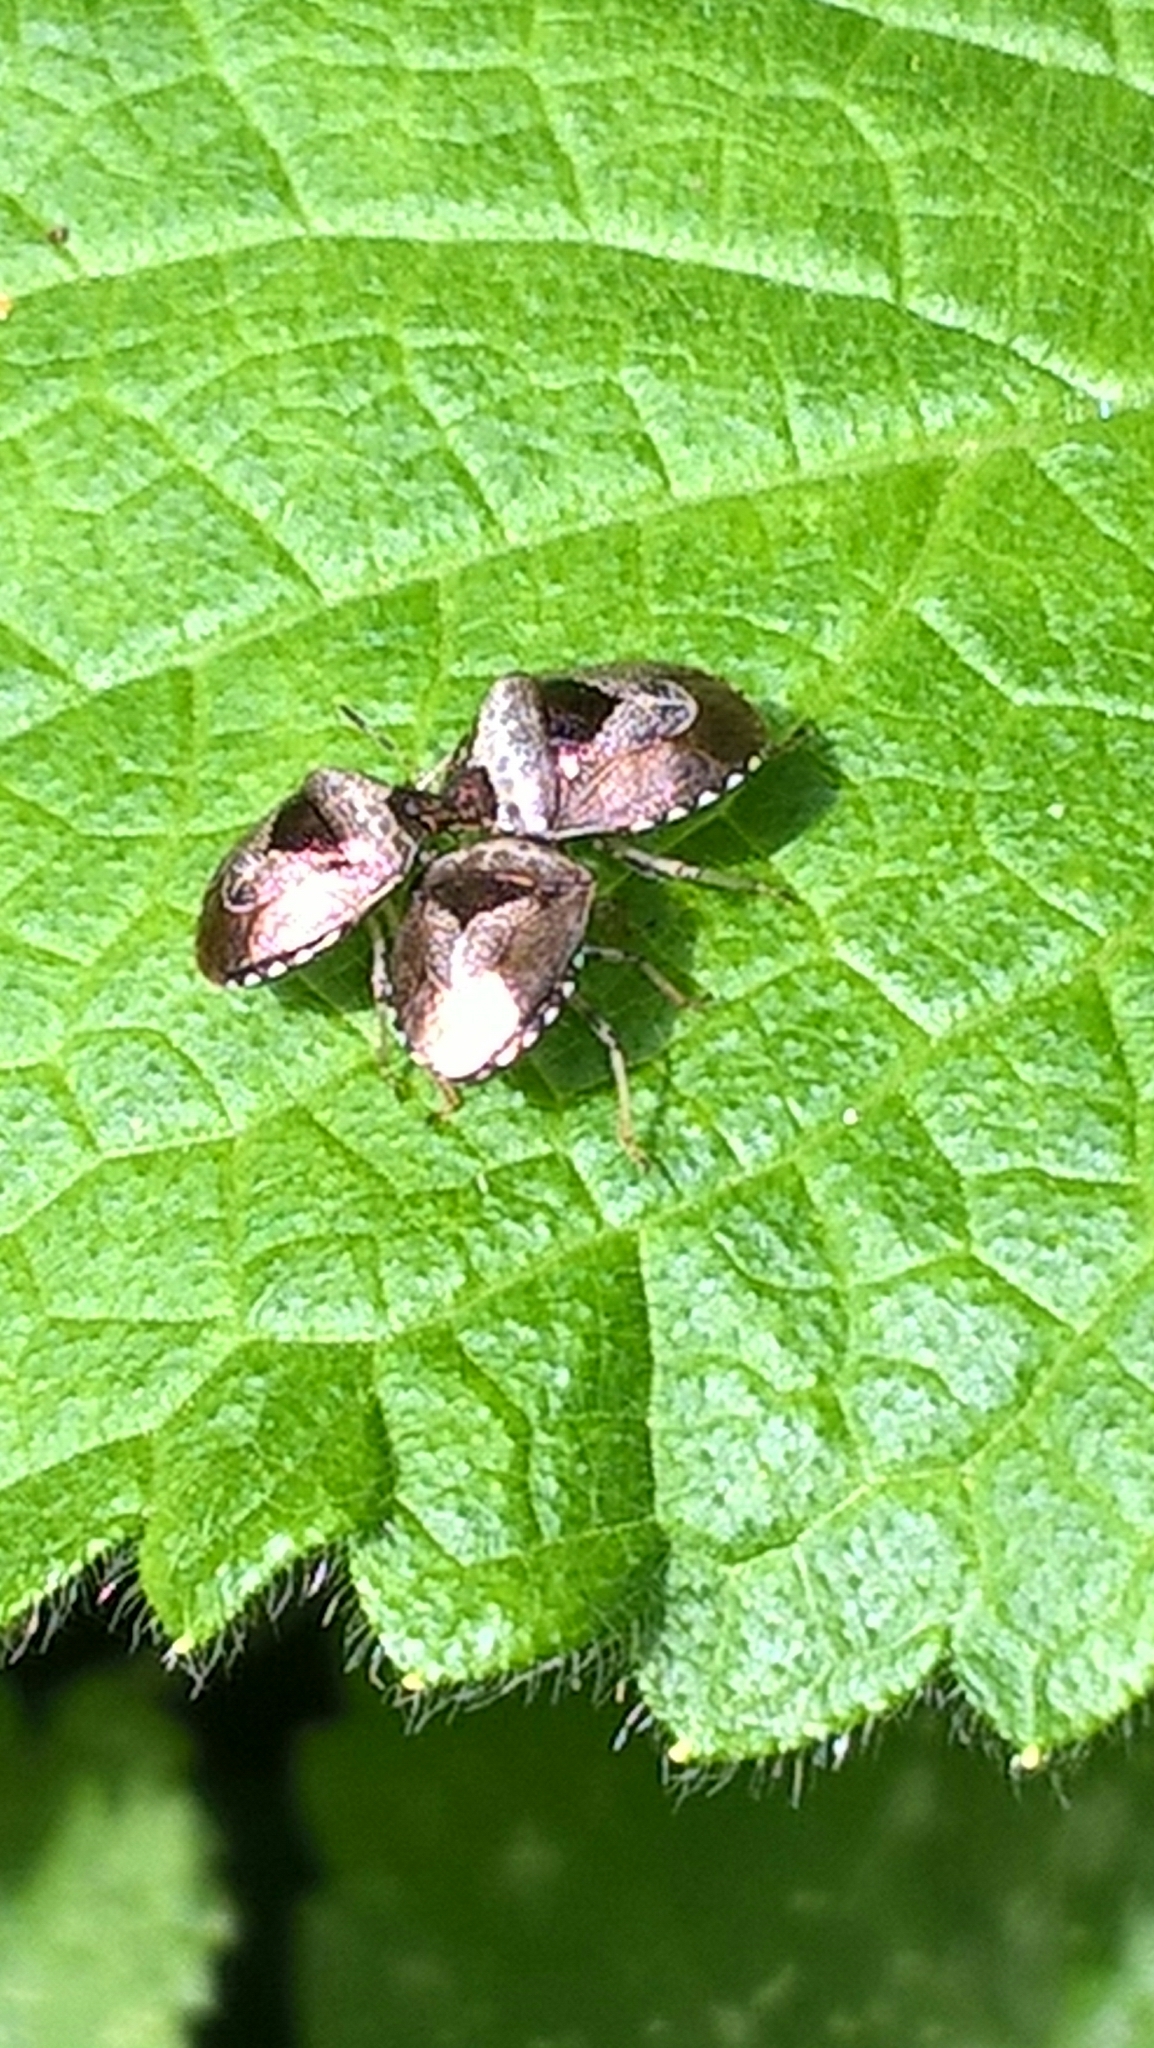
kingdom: Animalia
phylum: Arthropoda
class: Insecta
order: Hemiptera
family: Pentatomidae
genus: Eysarcoris
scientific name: Eysarcoris venustissimus
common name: Woundwort shieldbug
